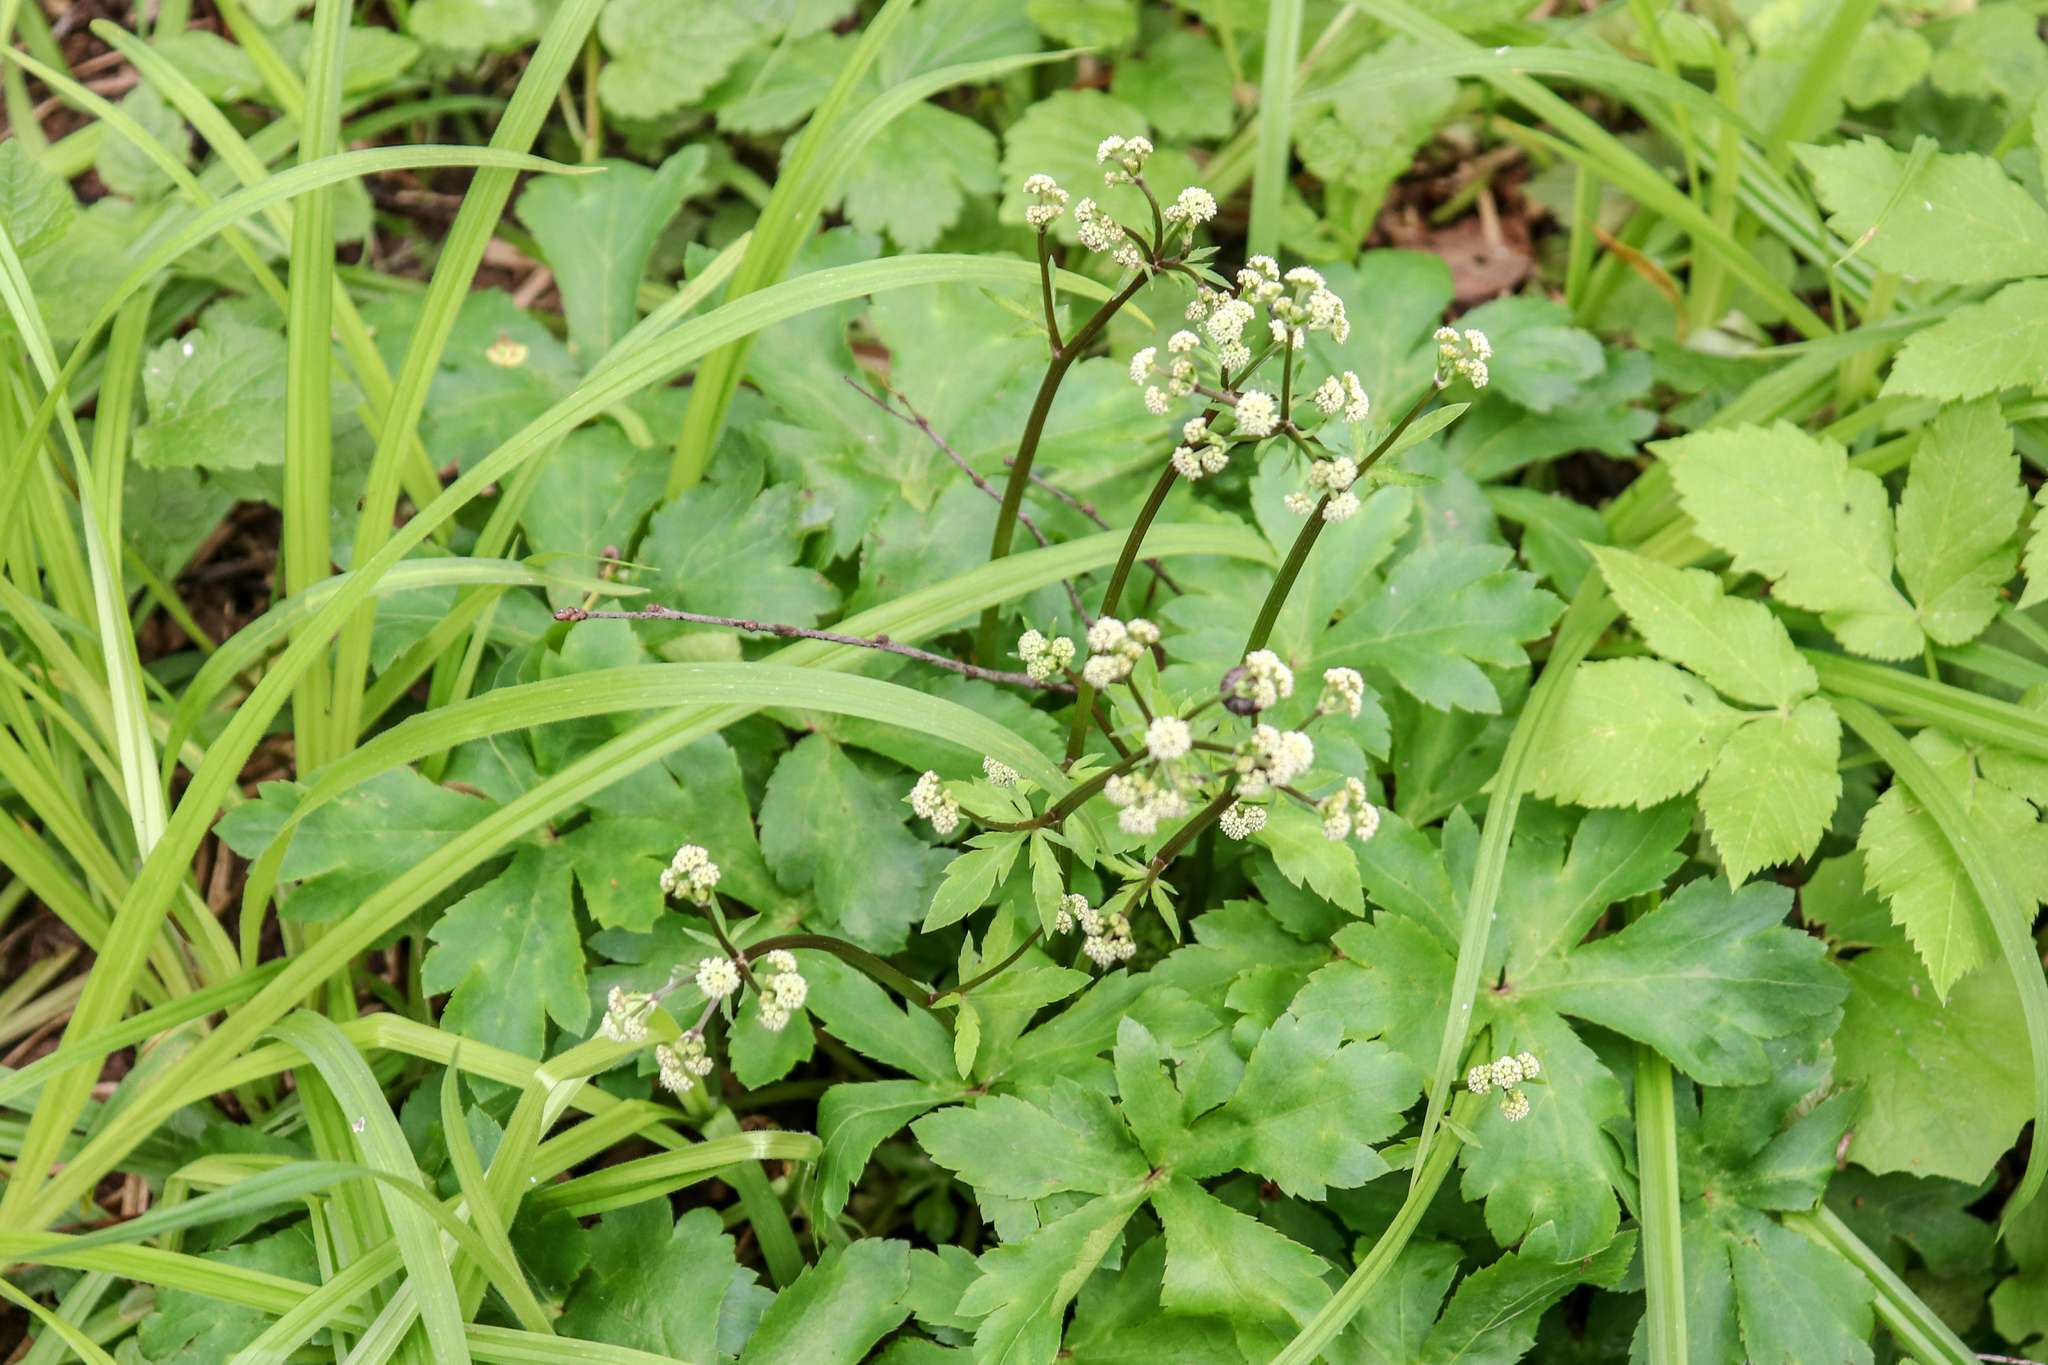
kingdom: Plantae
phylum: Tracheophyta
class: Magnoliopsida
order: Apiales
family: Apiaceae
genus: Sanicula
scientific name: Sanicula europaea
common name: Sanicle
